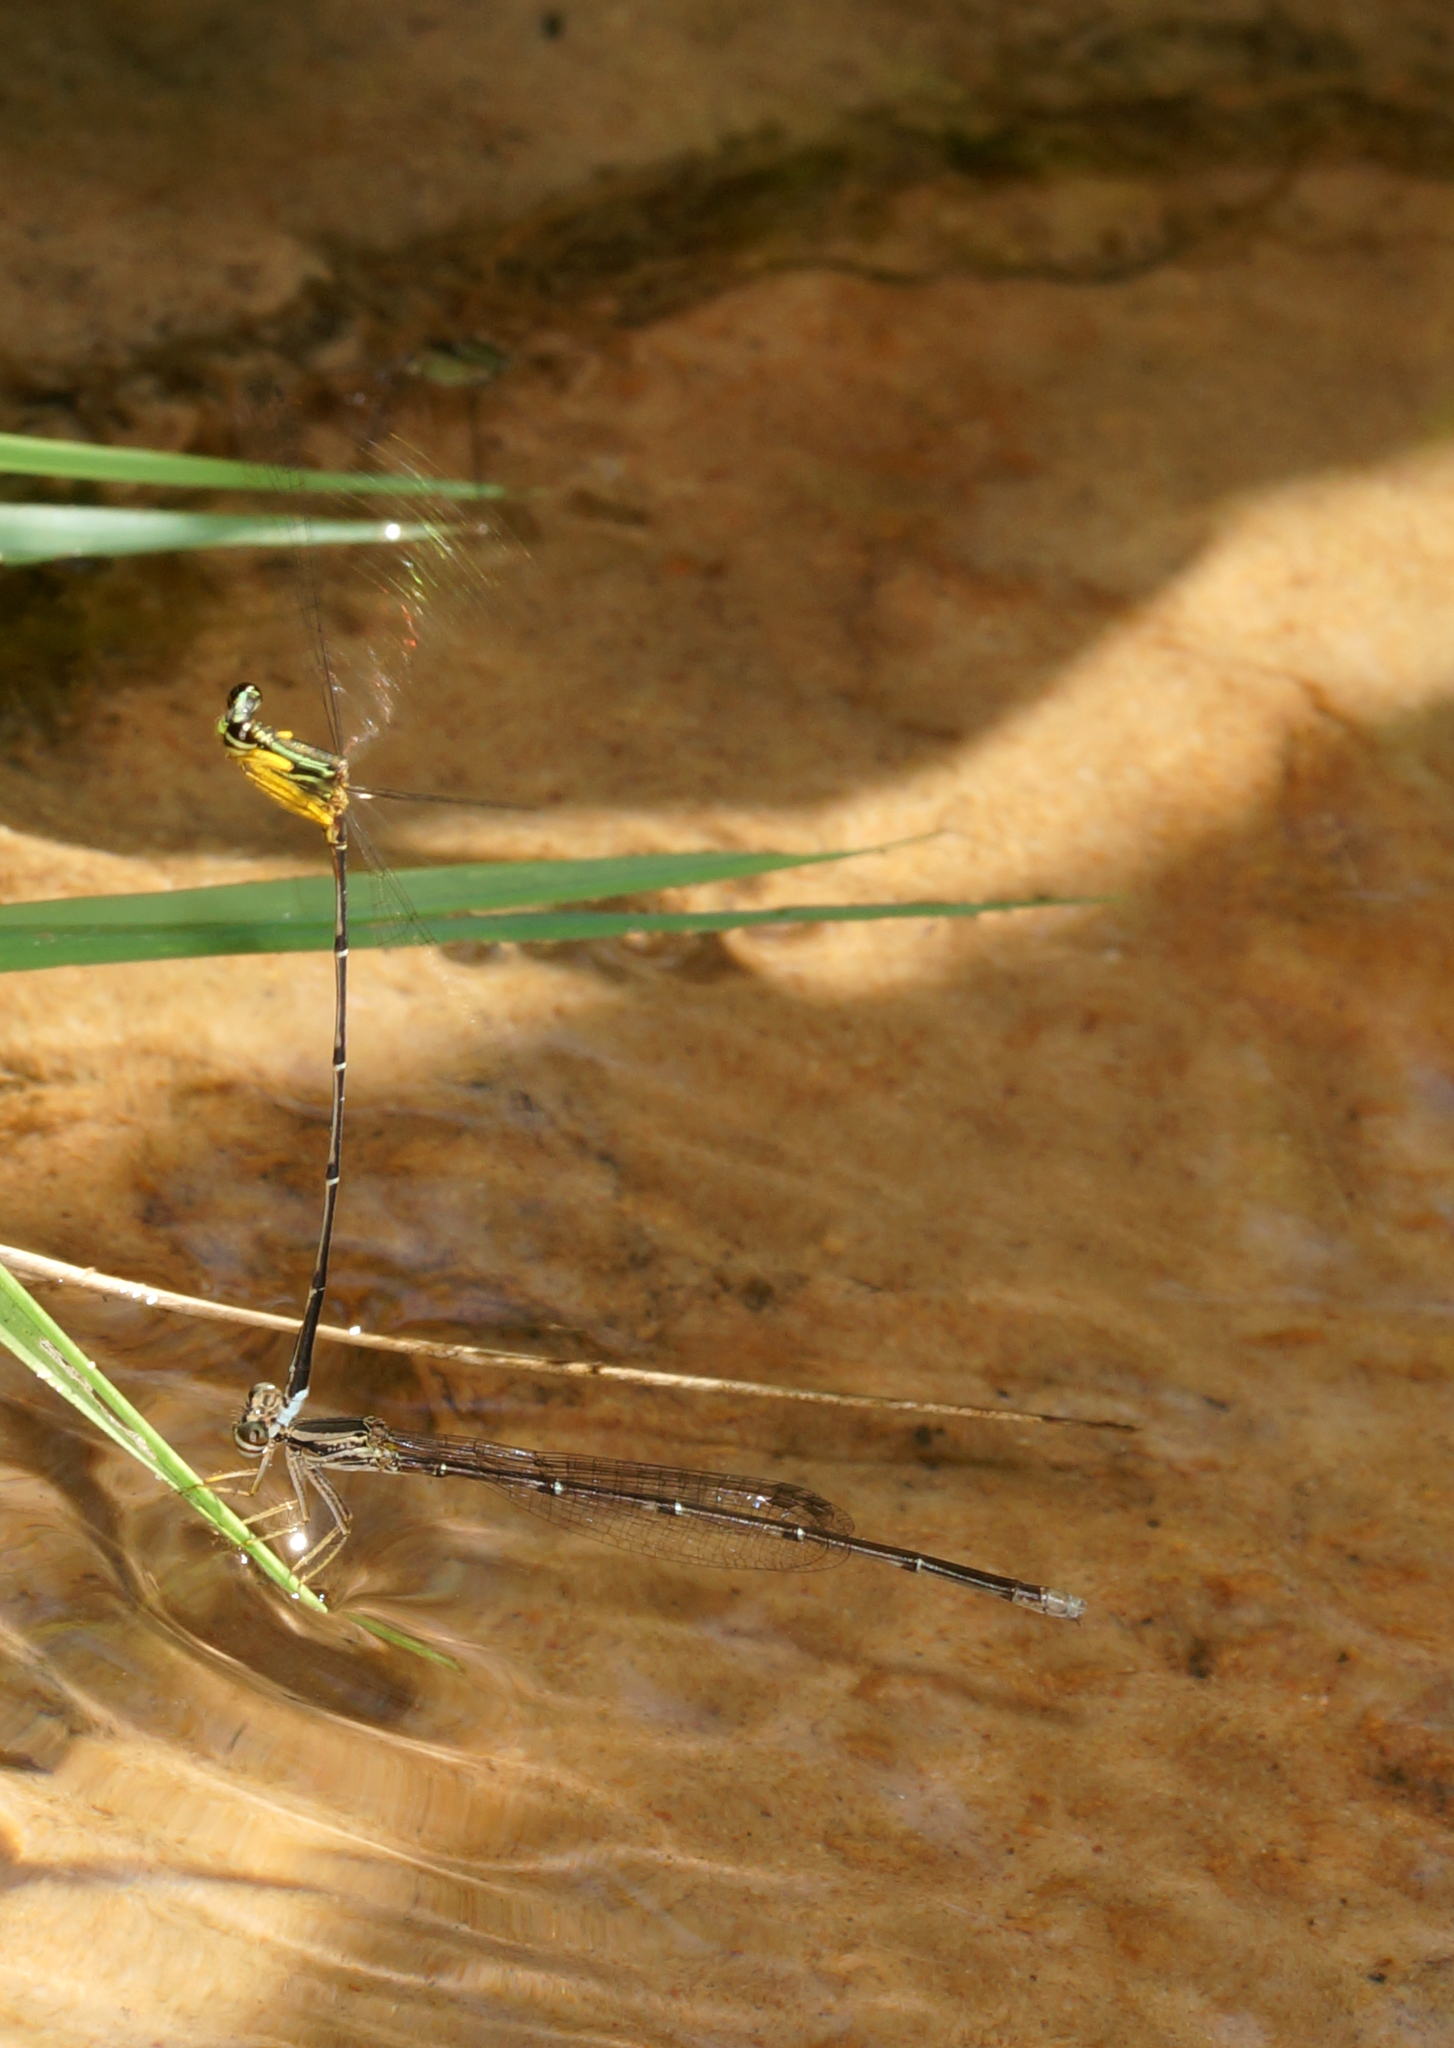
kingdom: Animalia
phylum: Arthropoda
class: Insecta
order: Odonata
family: Platycnemididae
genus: Copera
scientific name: Copera marginipes
